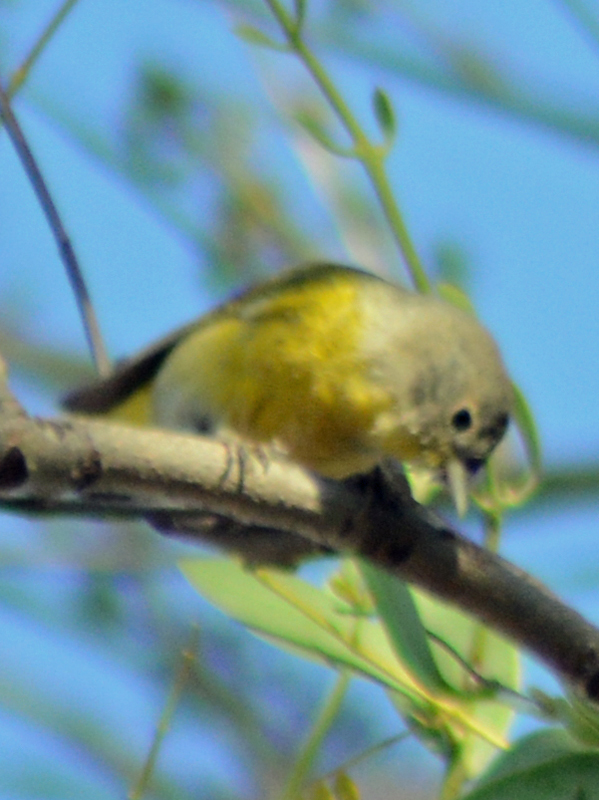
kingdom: Animalia
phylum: Chordata
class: Aves
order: Passeriformes
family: Parulidae
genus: Leiothlypis
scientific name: Leiothlypis ruficapilla
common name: Nashville warbler
